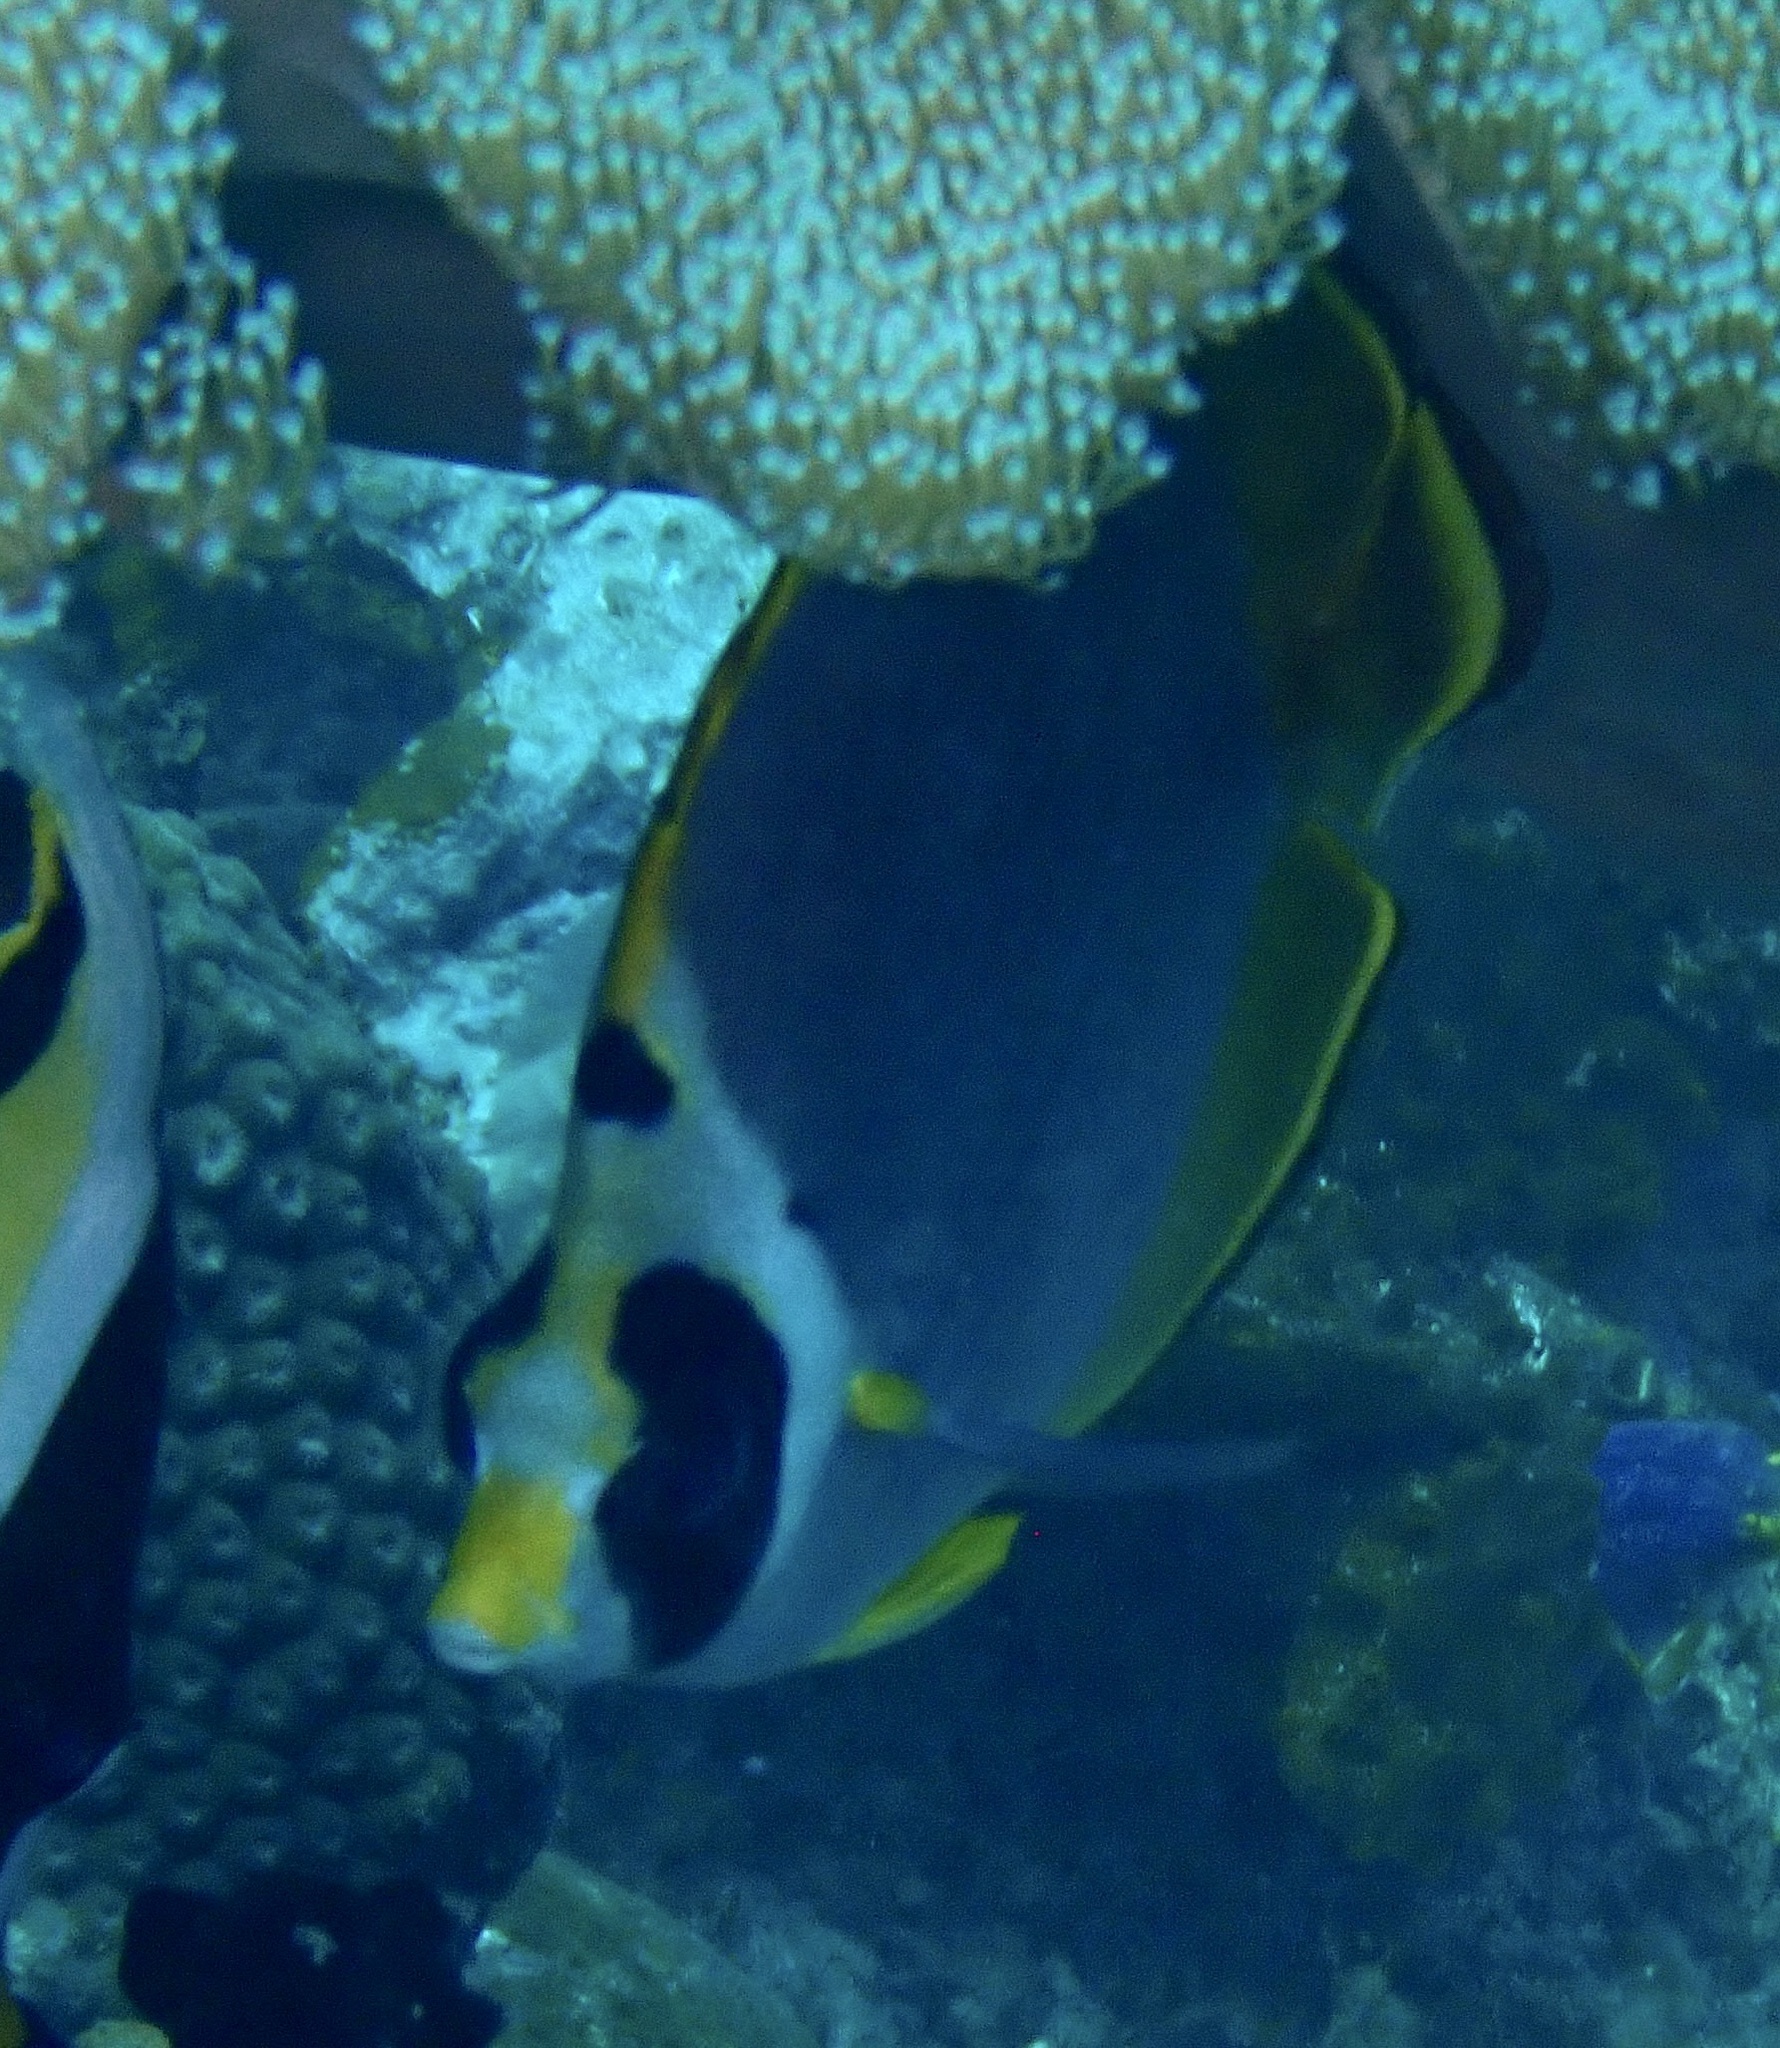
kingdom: Animalia
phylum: Chordata
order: Perciformes
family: Chaetodontidae
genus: Chaetodon
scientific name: Chaetodon adiergastos
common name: Eye-patch butterflyfish
